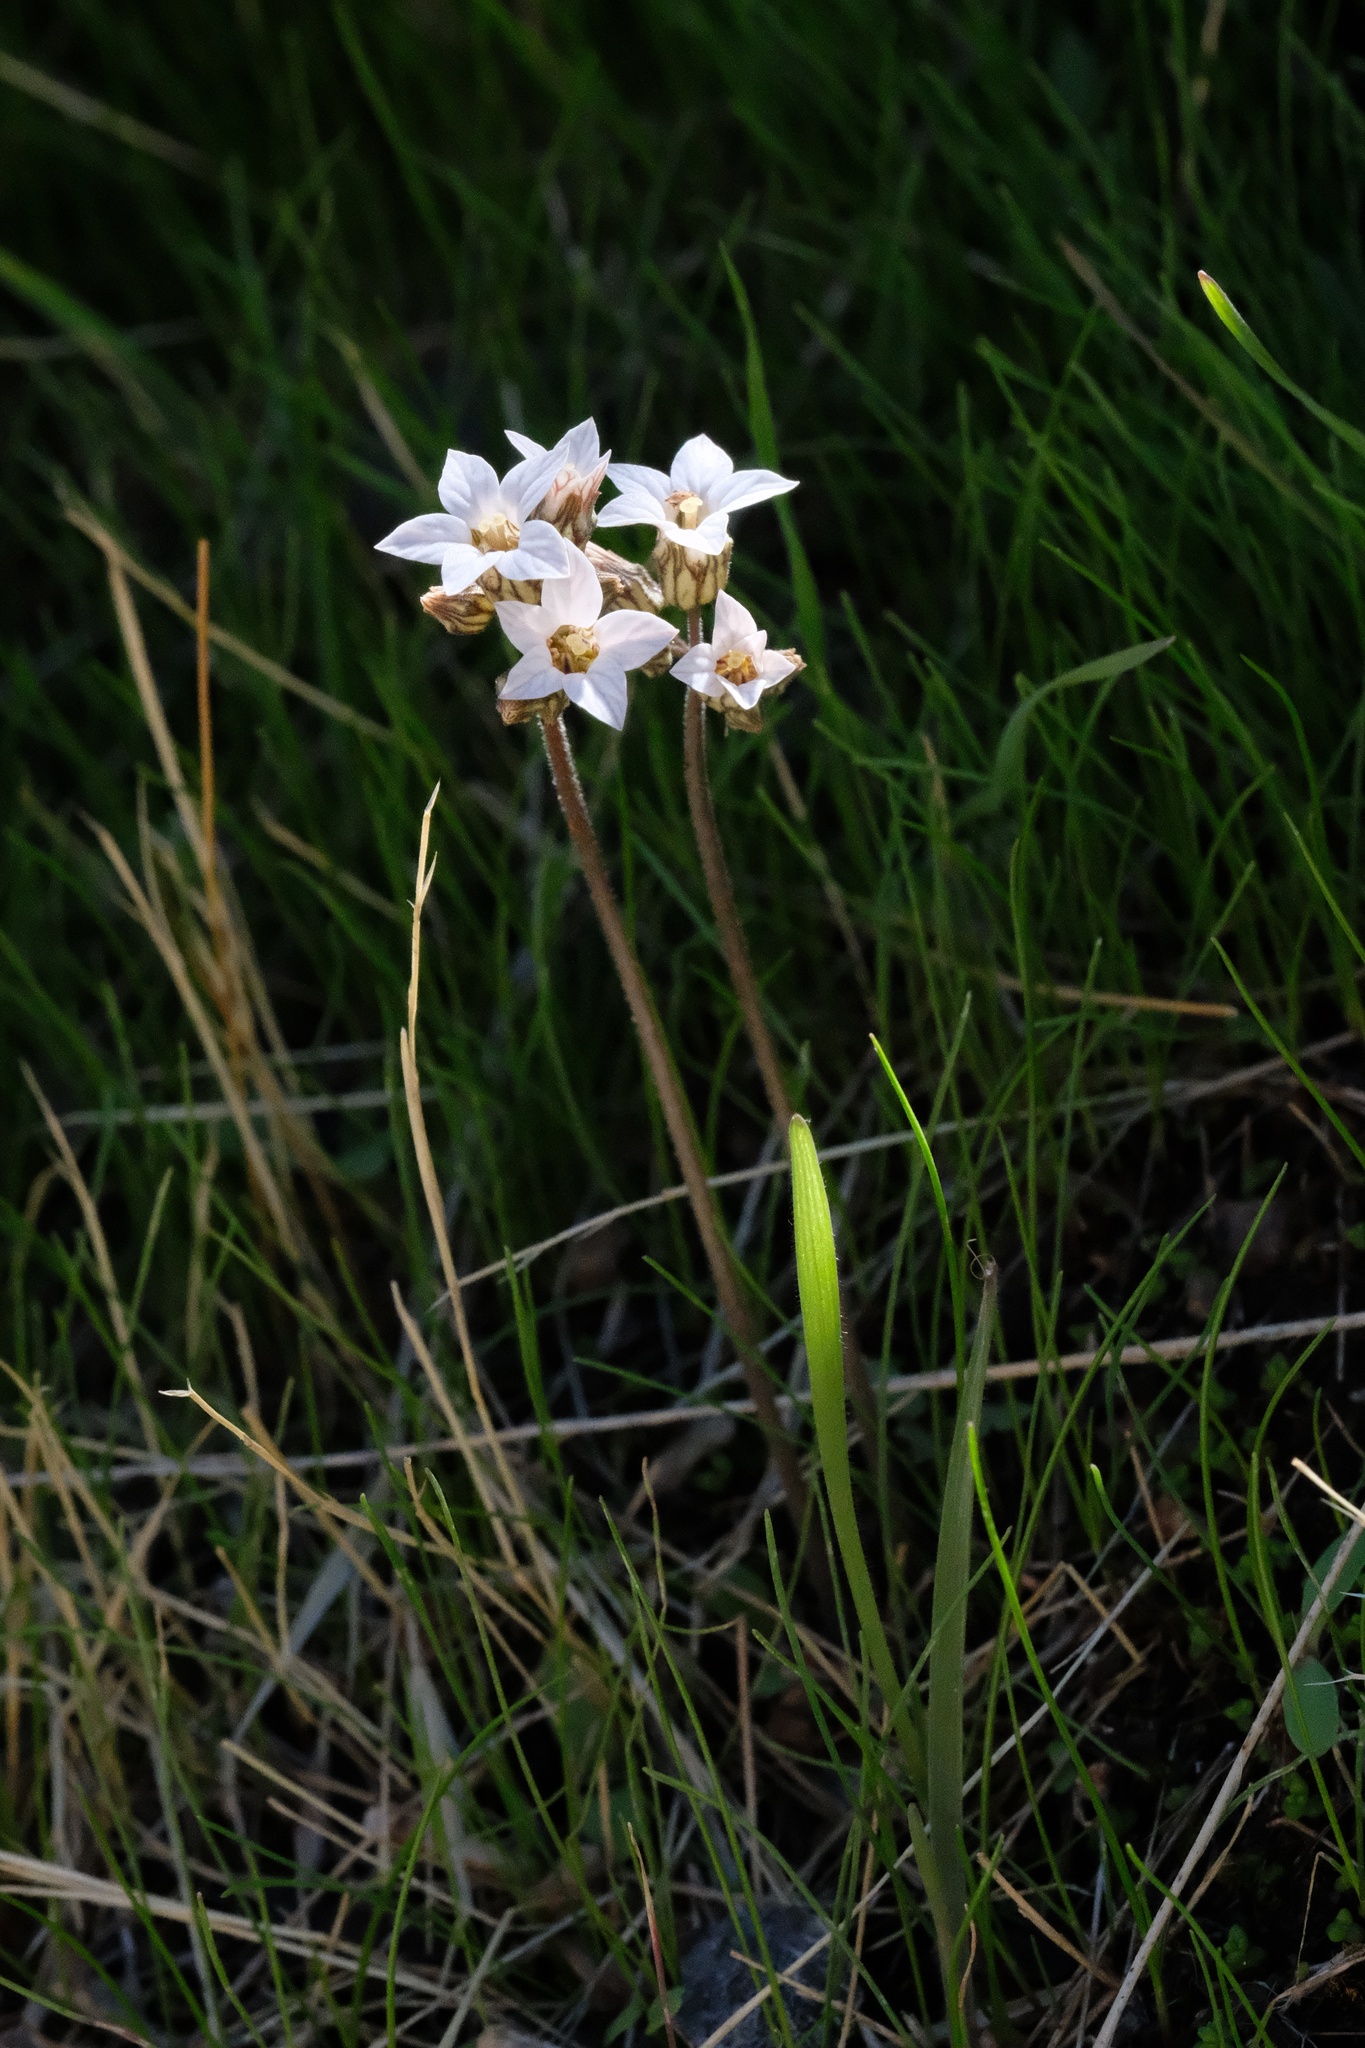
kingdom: Plantae
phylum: Tracheophyta
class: Magnoliopsida
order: Saxifragales
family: Saxifragaceae
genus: Jepsonia
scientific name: Jepsonia parryi
